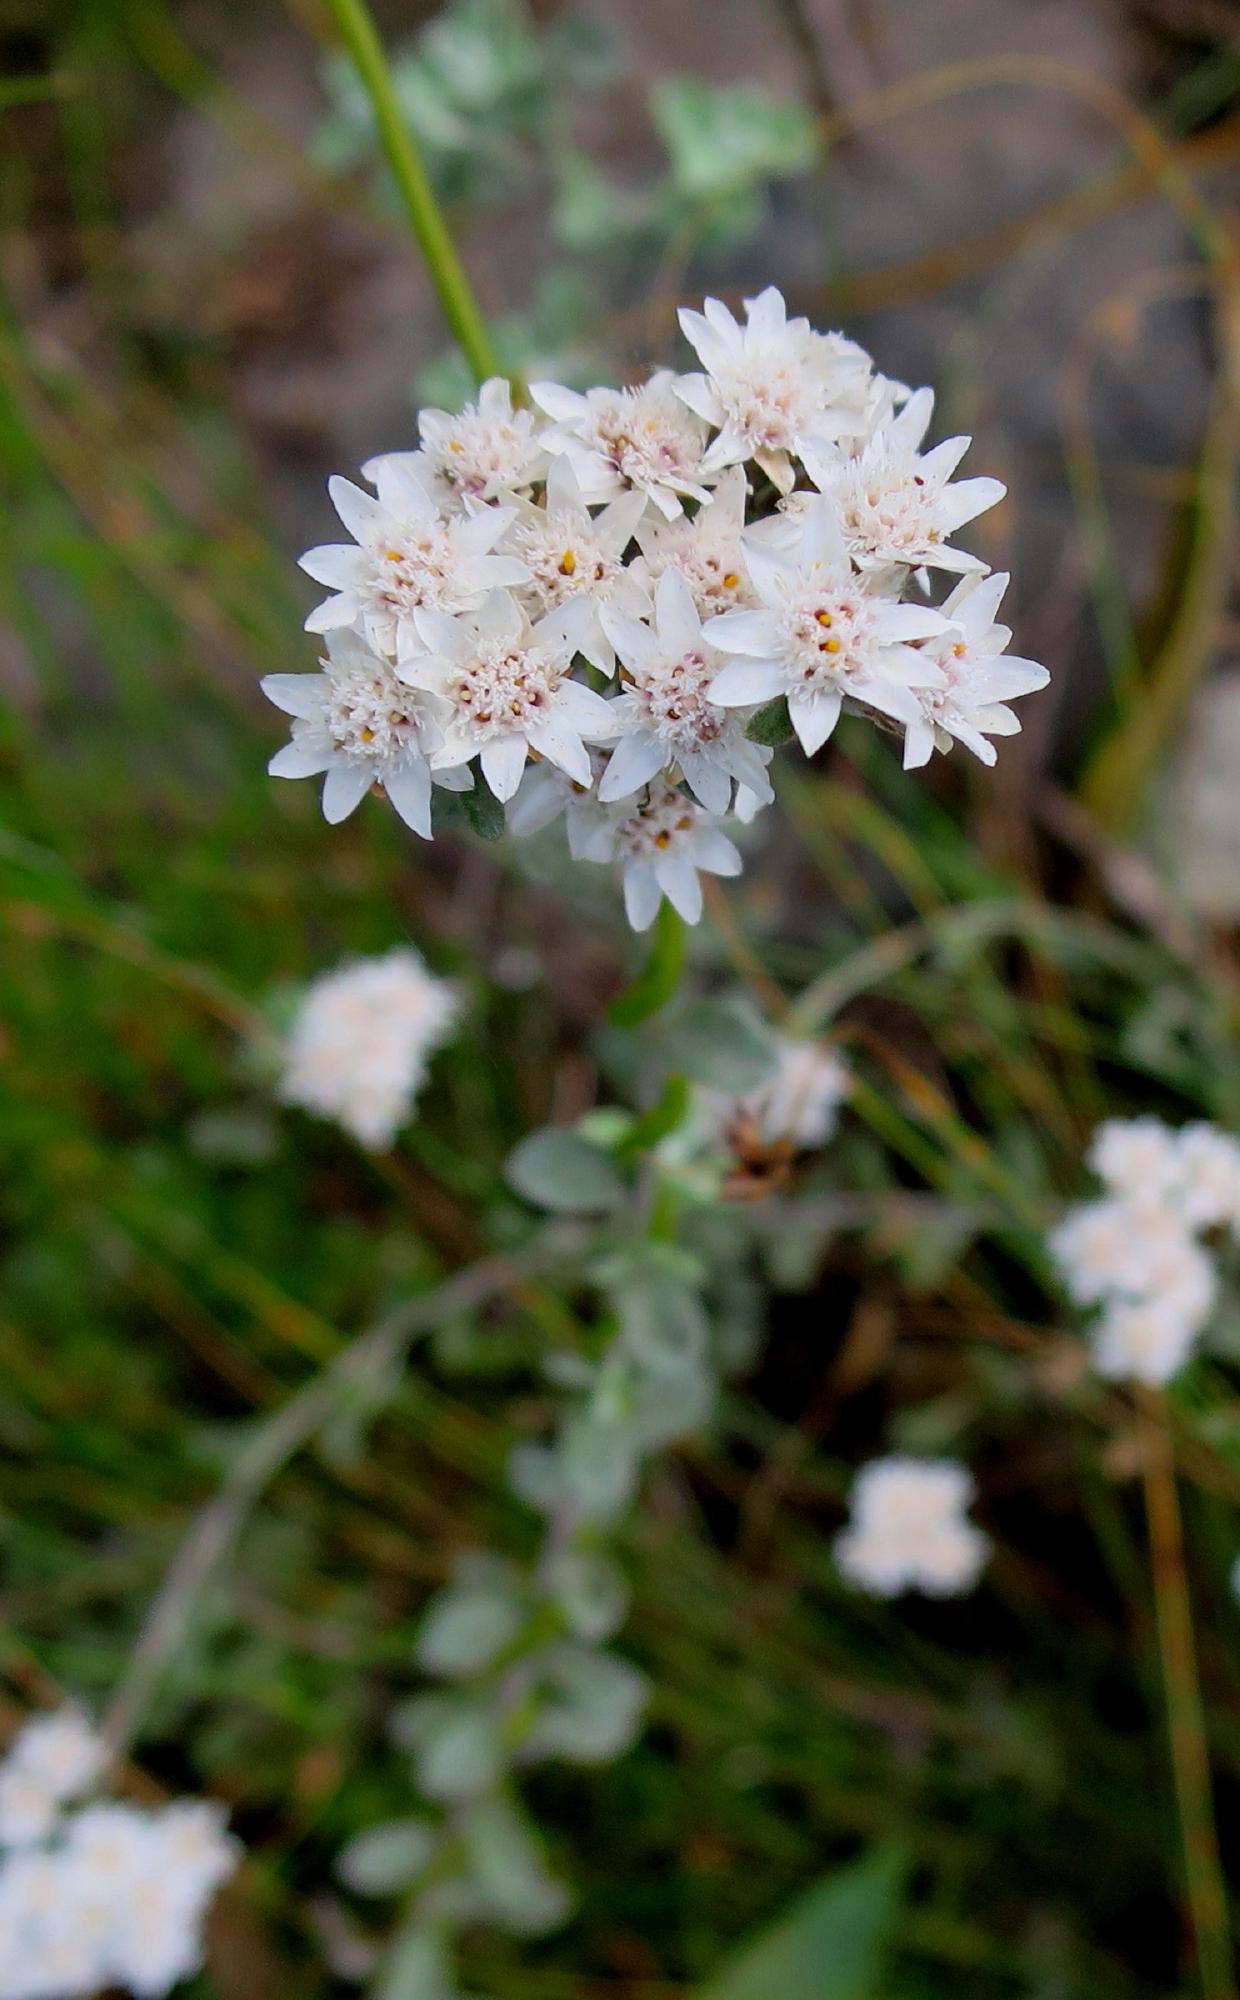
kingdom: Plantae
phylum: Tracheophyta
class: Magnoliopsida
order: Asterales
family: Asteraceae
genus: Langebergia
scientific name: Langebergia canescens
